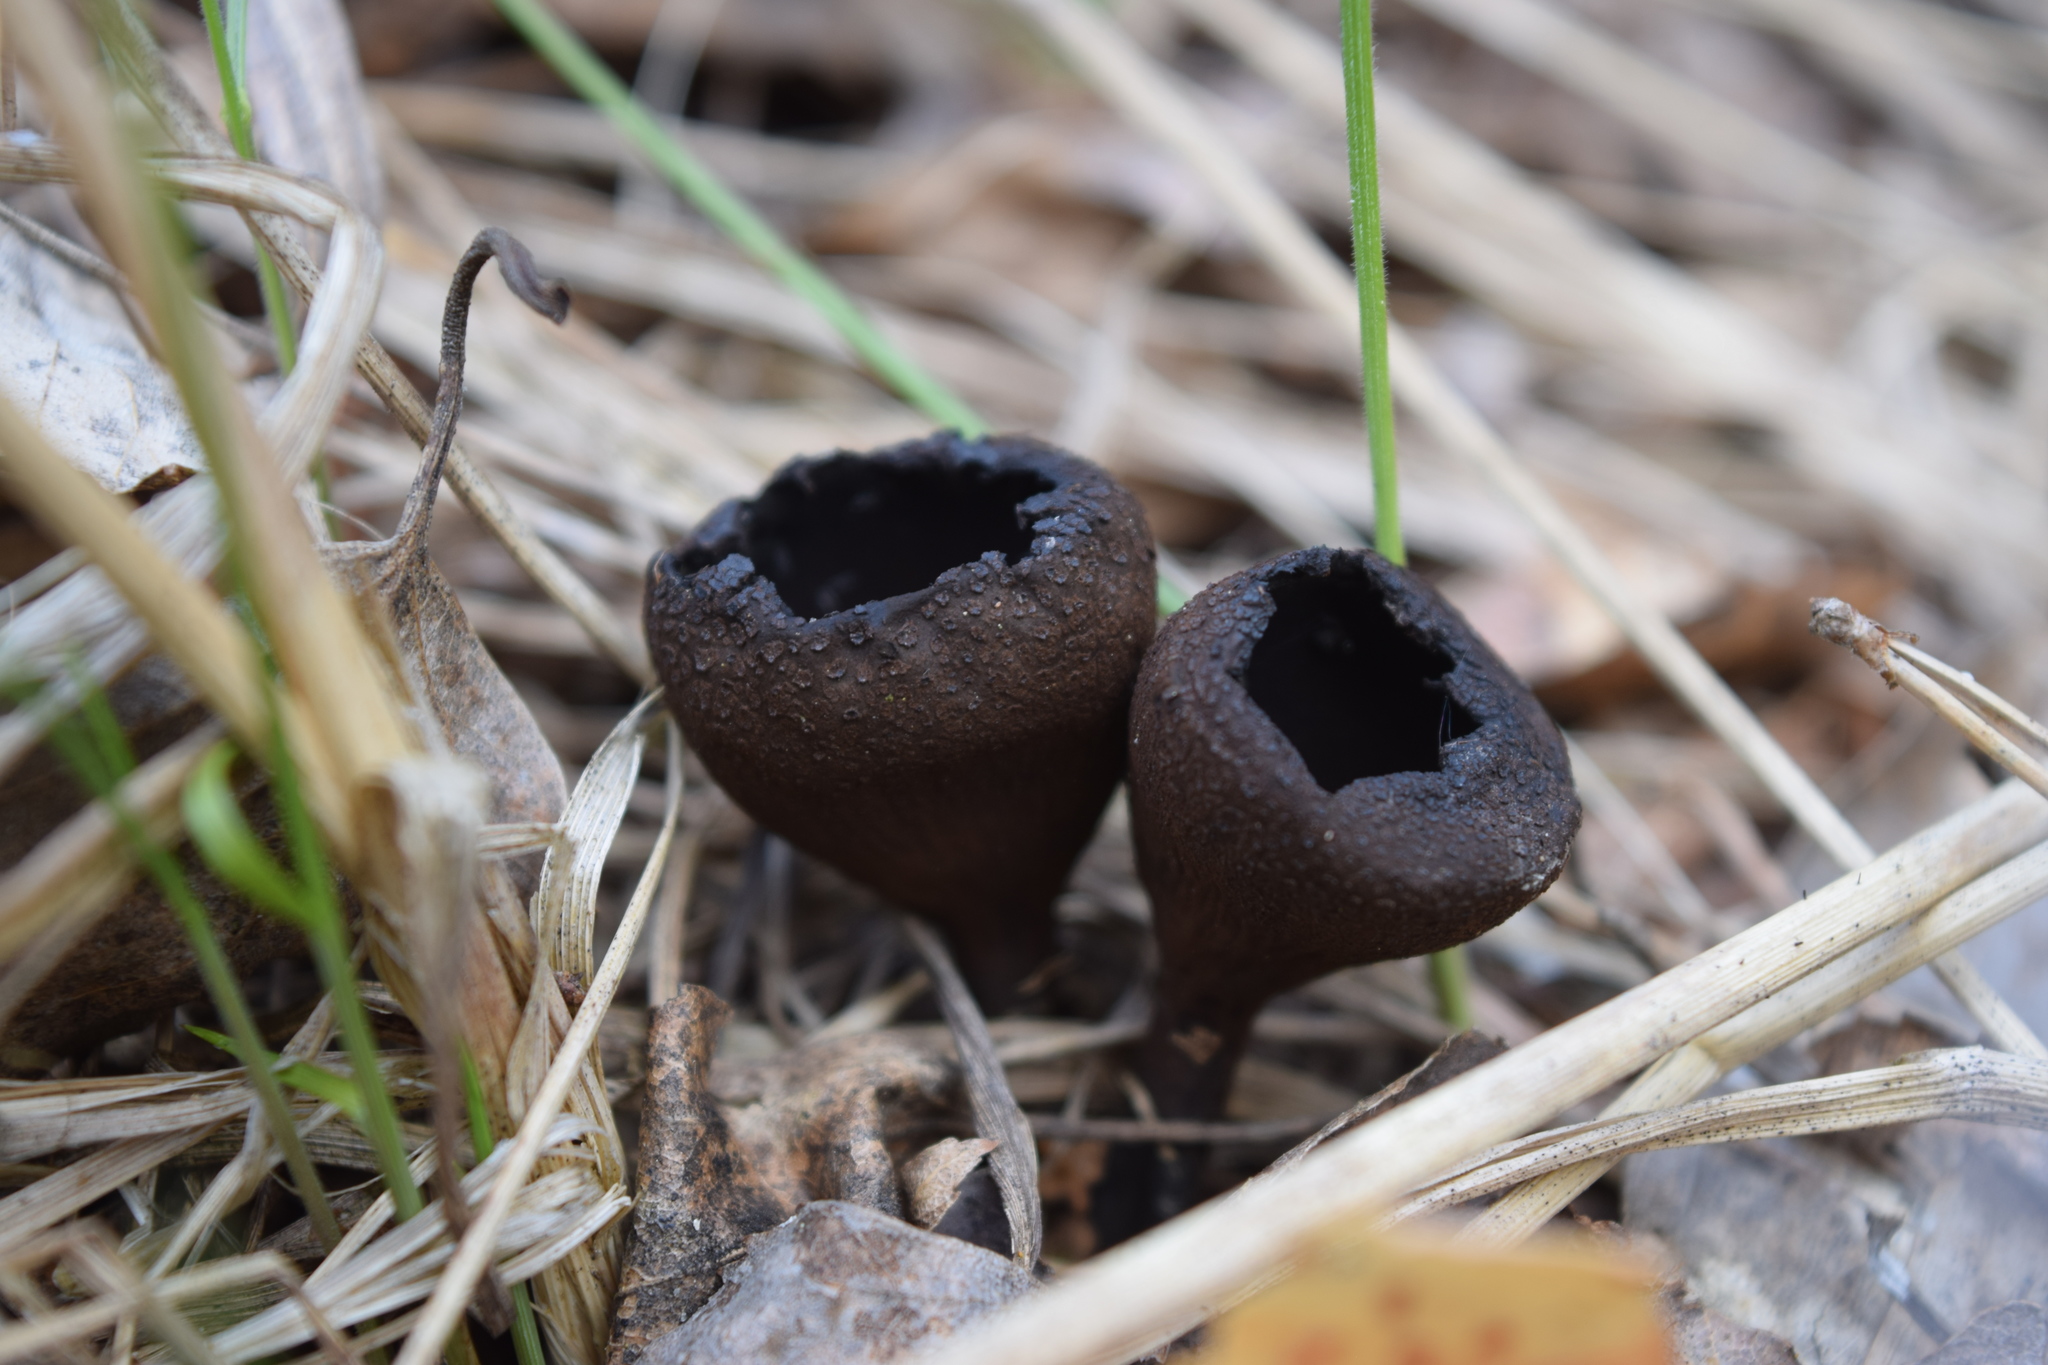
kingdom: Fungi
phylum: Ascomycota
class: Pezizomycetes
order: Pezizales
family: Sarcosomataceae
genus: Urnula
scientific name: Urnula craterium
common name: Devil's urn
